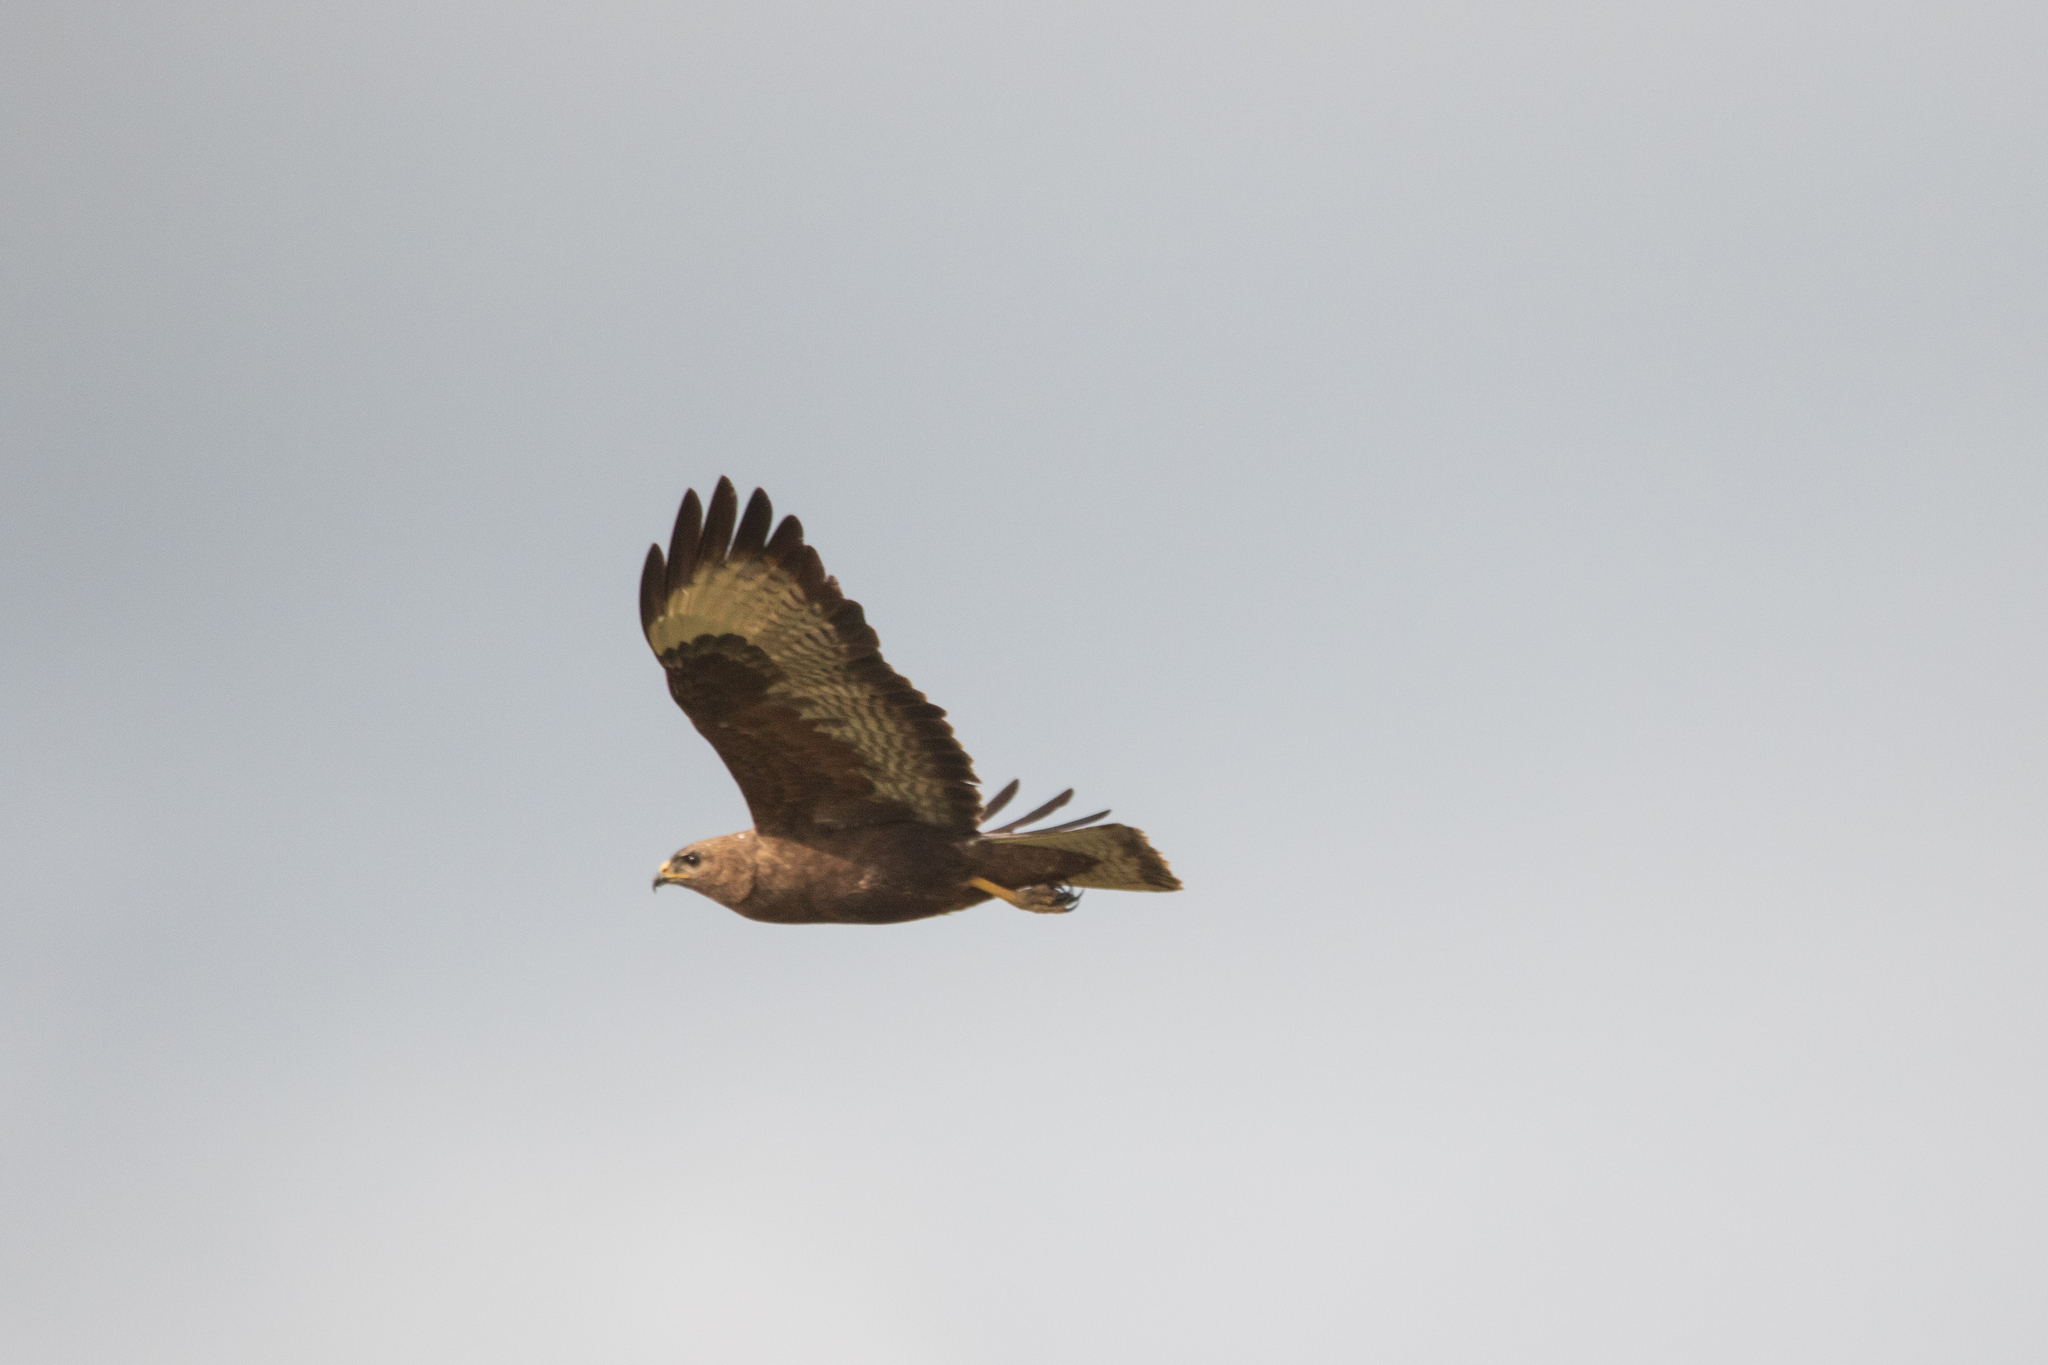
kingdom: Animalia
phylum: Chordata
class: Aves
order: Accipitriformes
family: Accipitridae
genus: Buteo
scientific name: Buteo buteo
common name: Common buzzard
